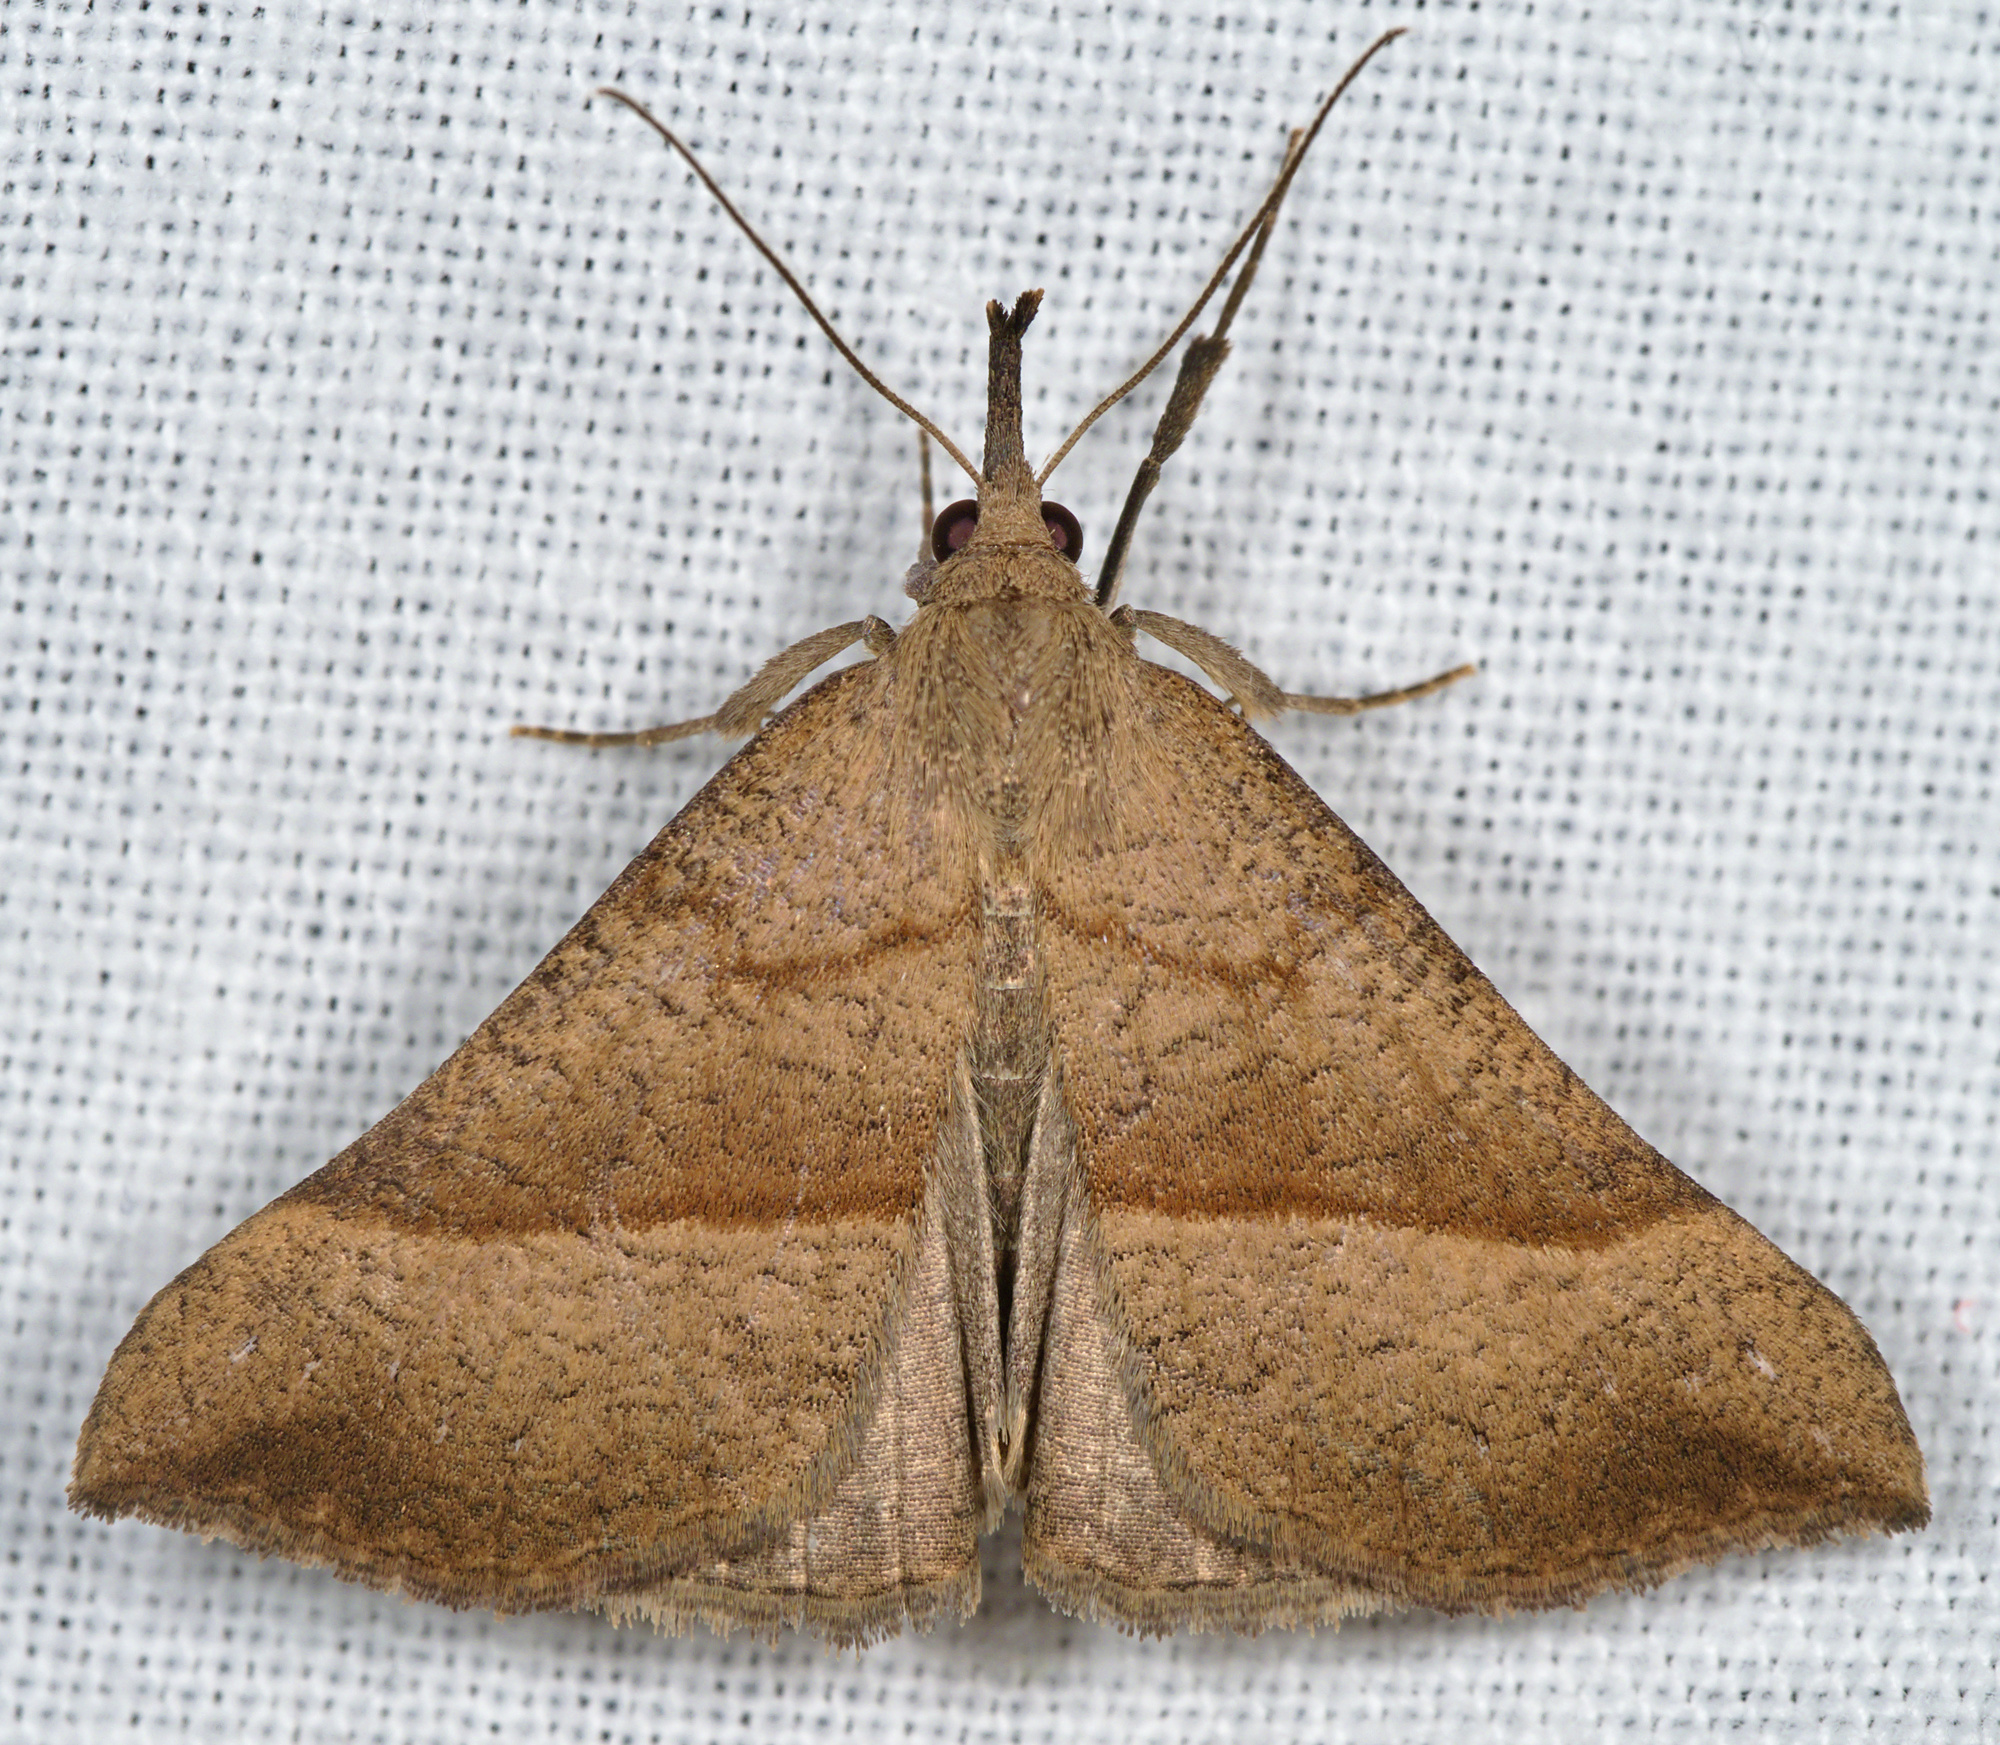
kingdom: Animalia
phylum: Arthropoda
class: Insecta
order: Lepidoptera
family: Erebidae
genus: Hypena
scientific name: Hypena proboscidalis
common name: Snout
